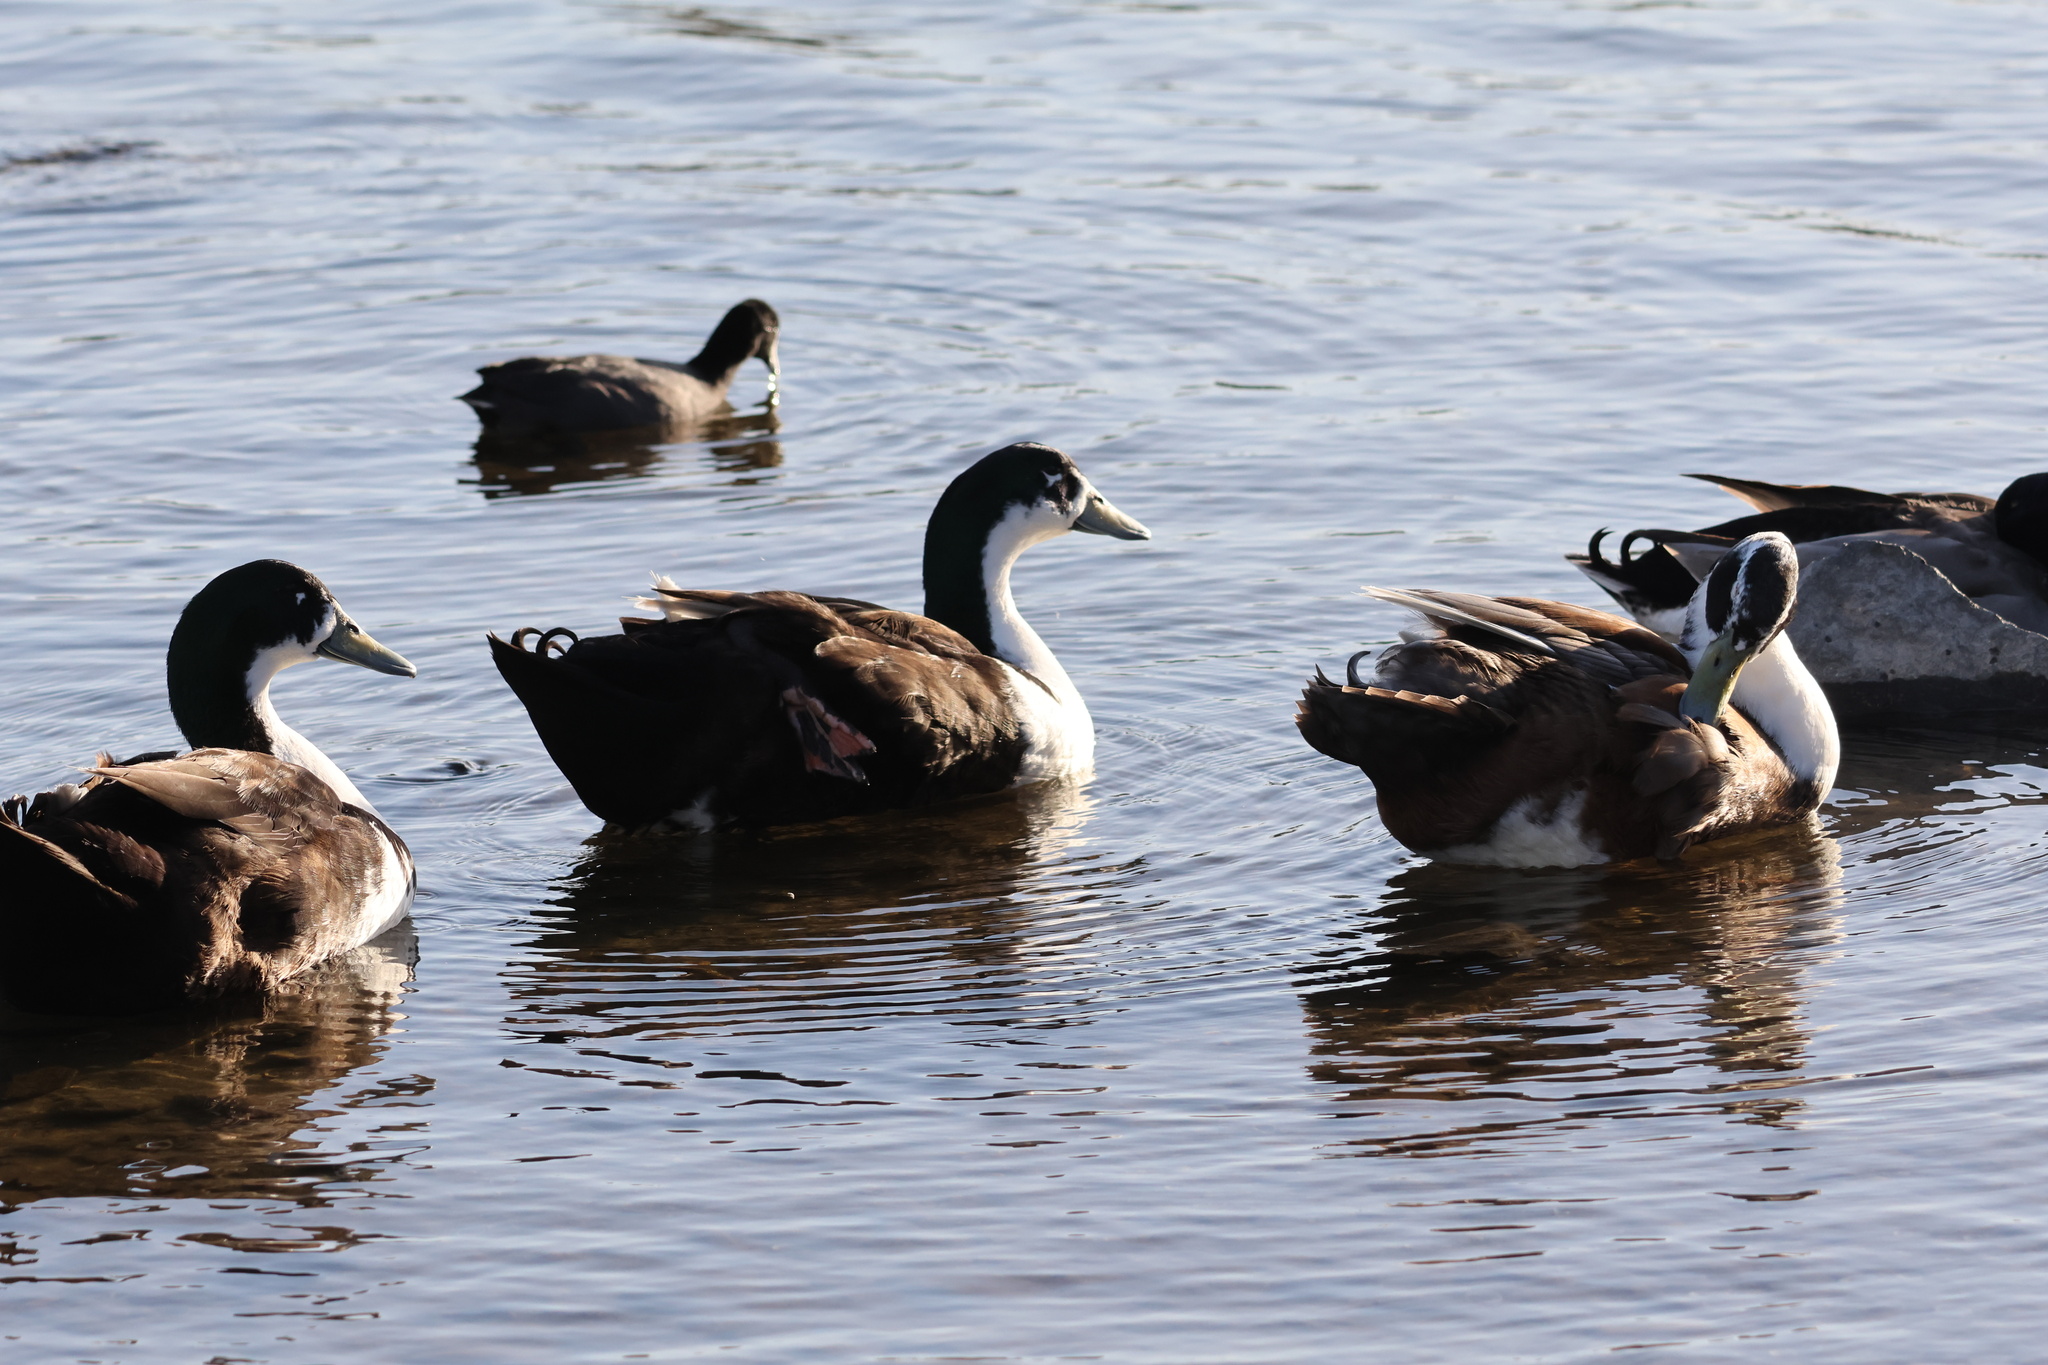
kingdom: Animalia
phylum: Chordata
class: Aves
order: Anseriformes
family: Anatidae
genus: Anas
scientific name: Anas platyrhynchos
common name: Mallard
